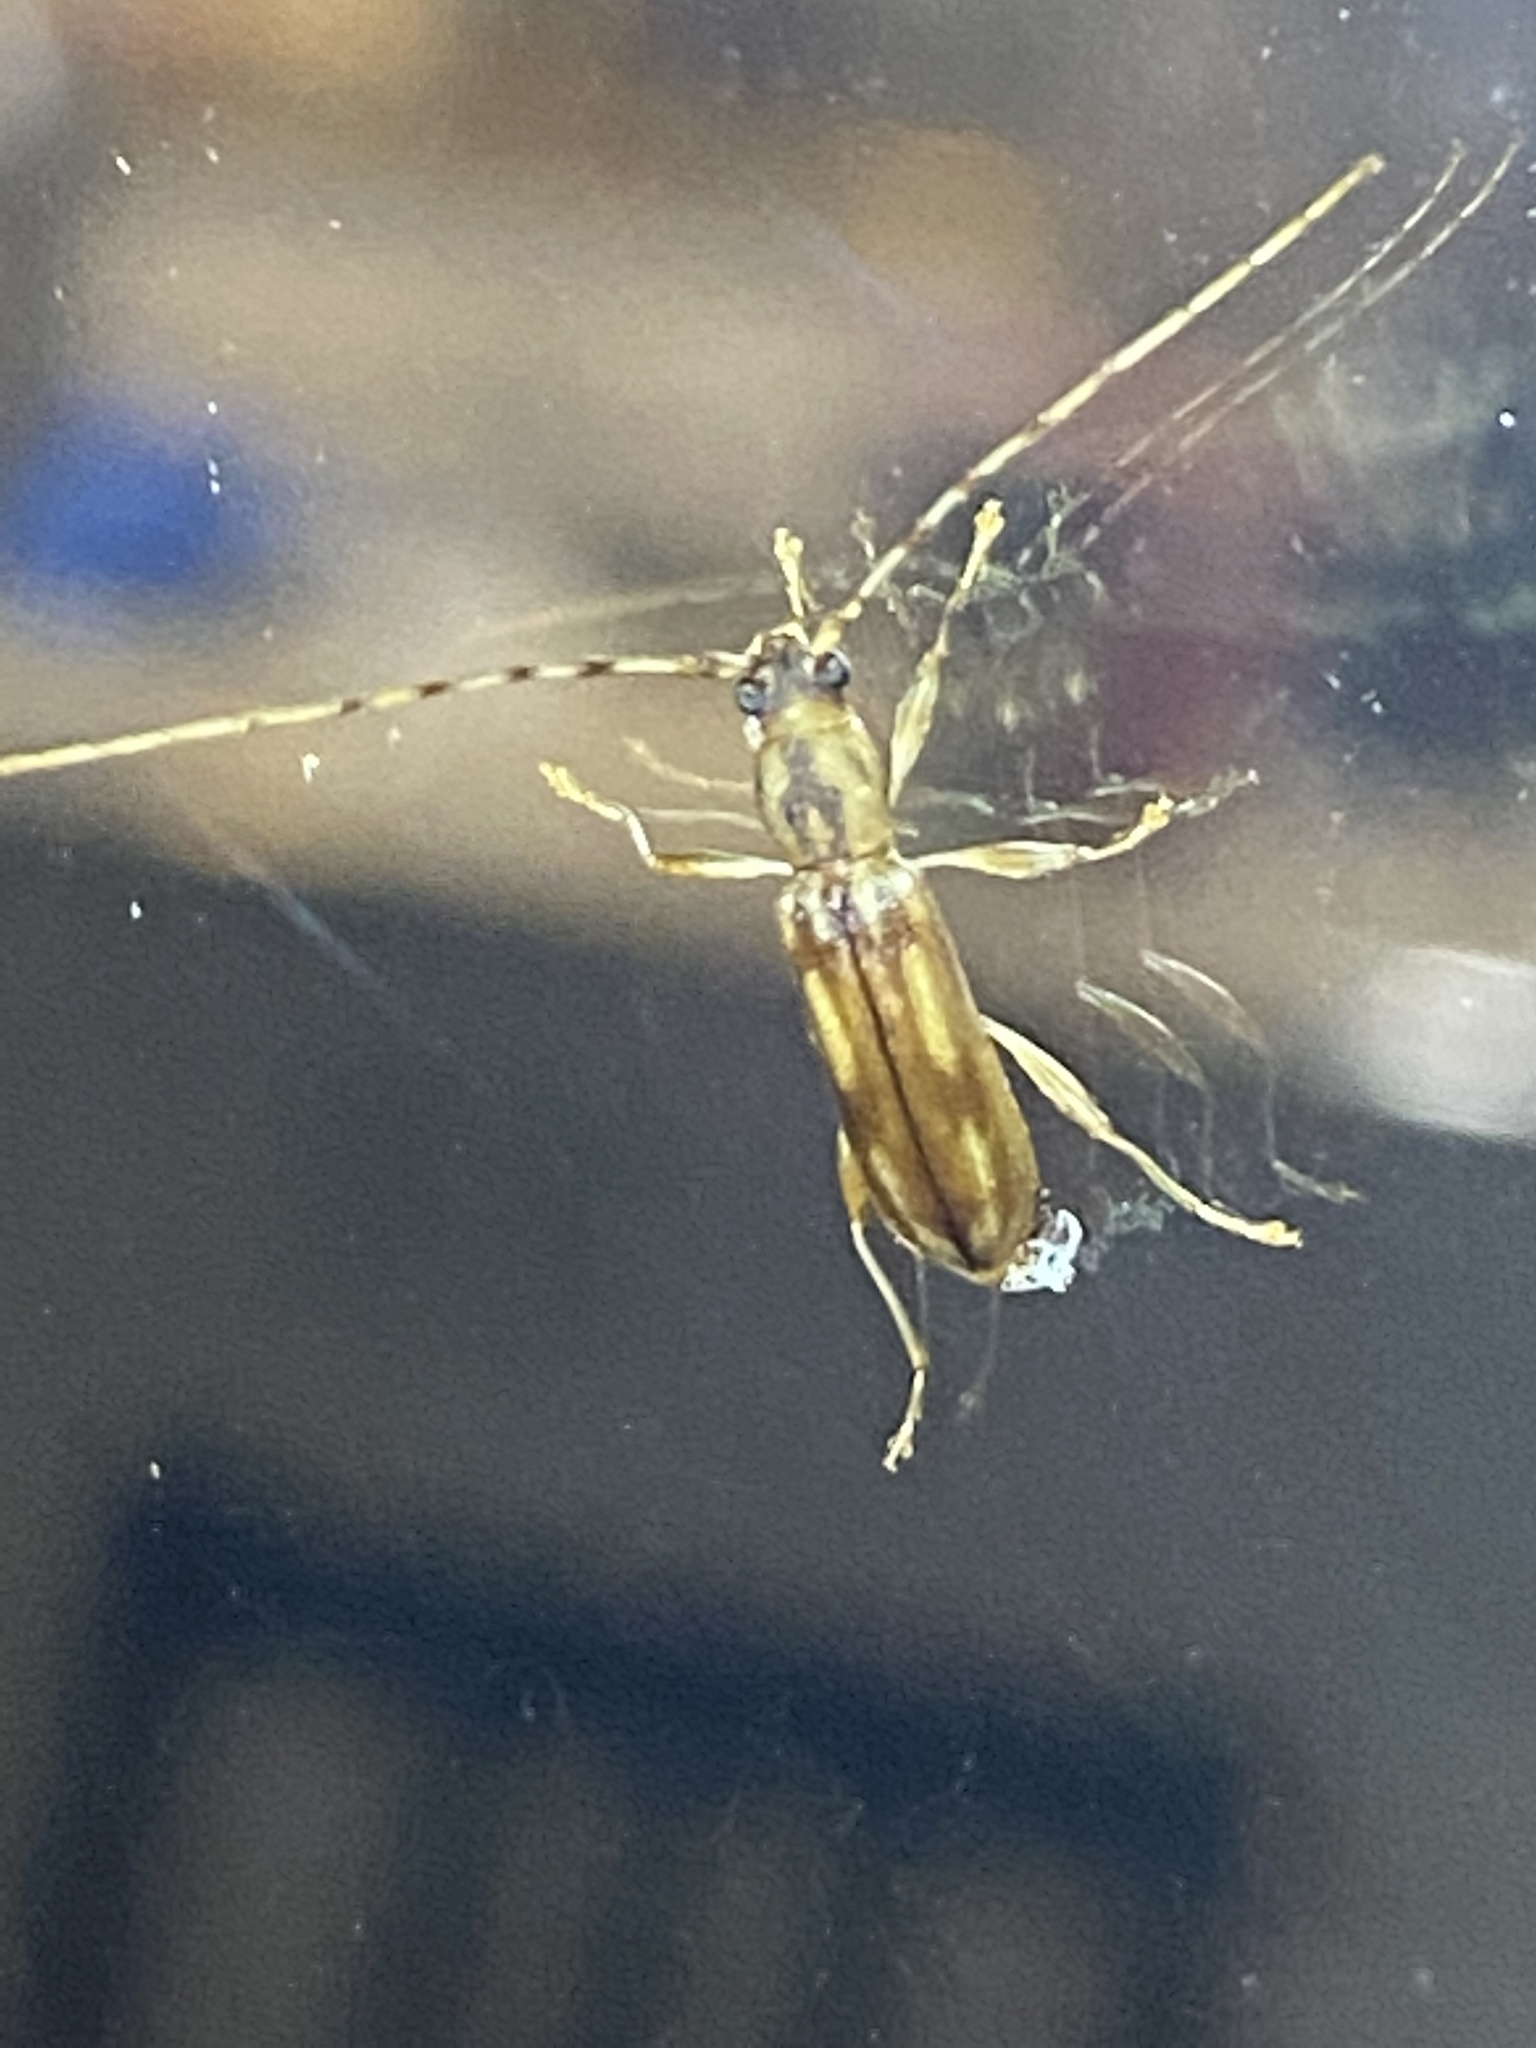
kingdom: Animalia
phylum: Arthropoda
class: Insecta
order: Coleoptera
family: Cerambycidae
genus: Curius
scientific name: Curius dentatus
